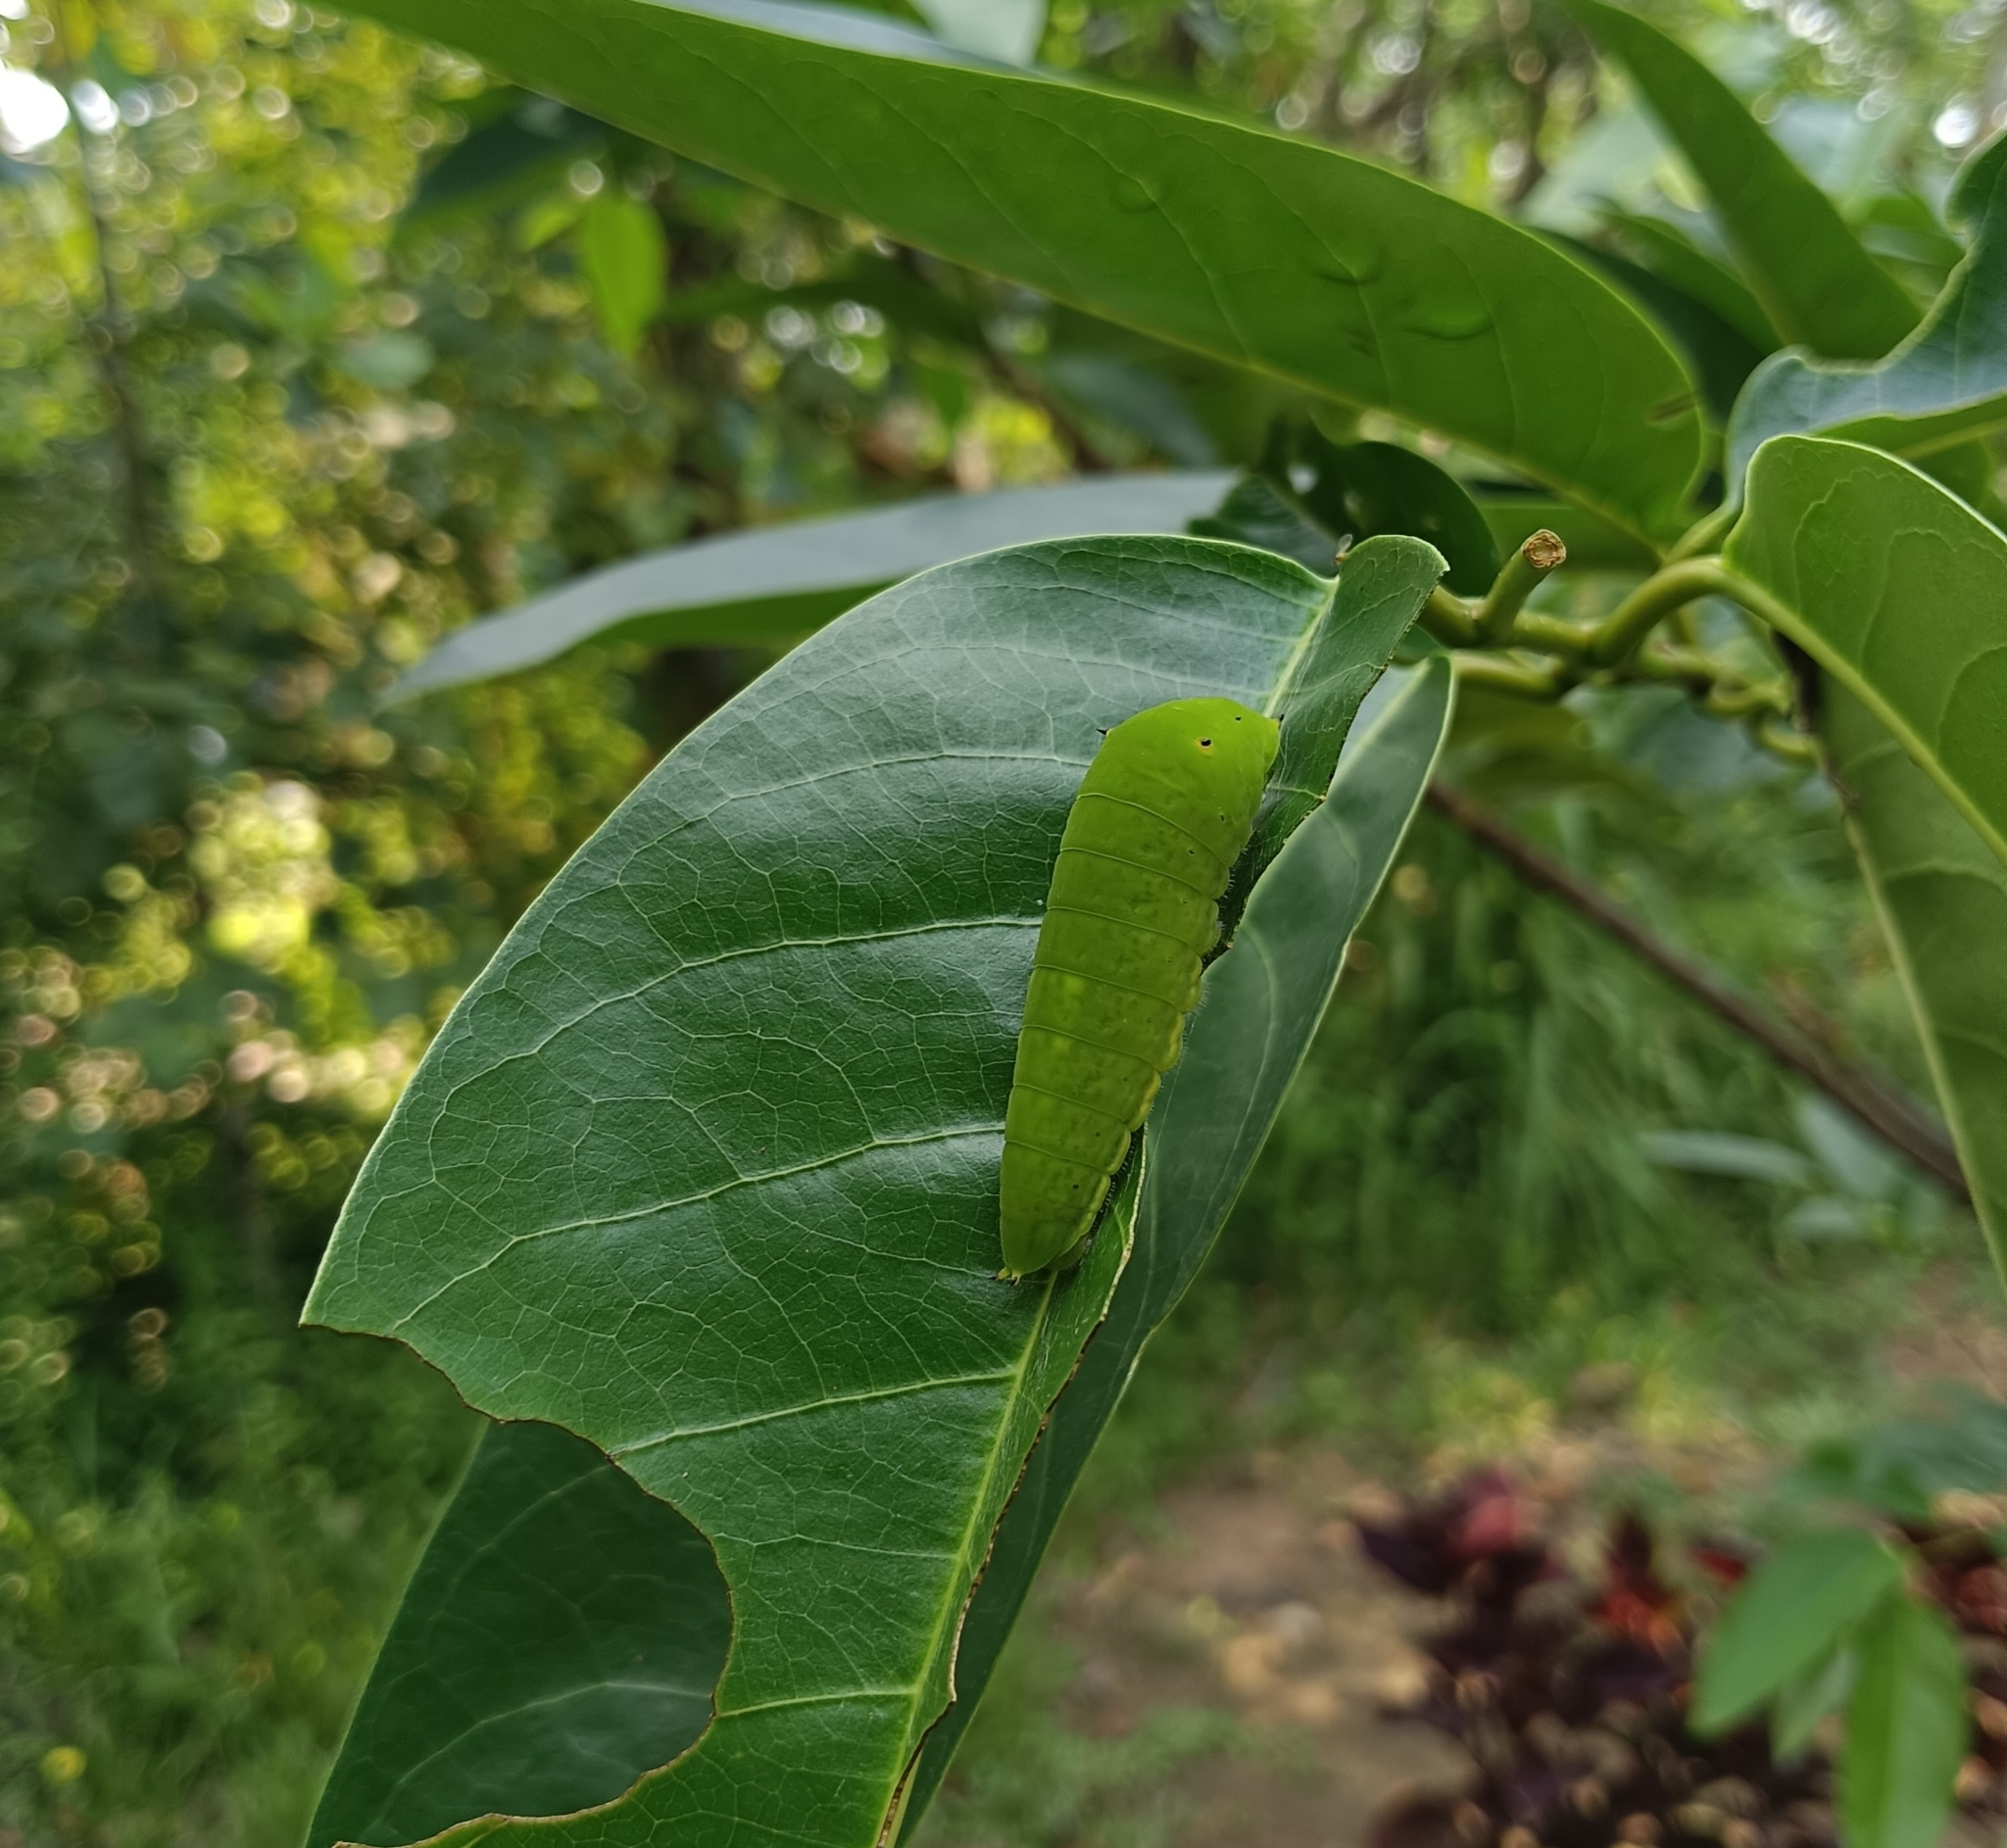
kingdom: Animalia
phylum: Arthropoda
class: Insecta
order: Lepidoptera
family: Papilionidae
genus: Graphium
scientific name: Graphium agamemnon
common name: Tailed jay
